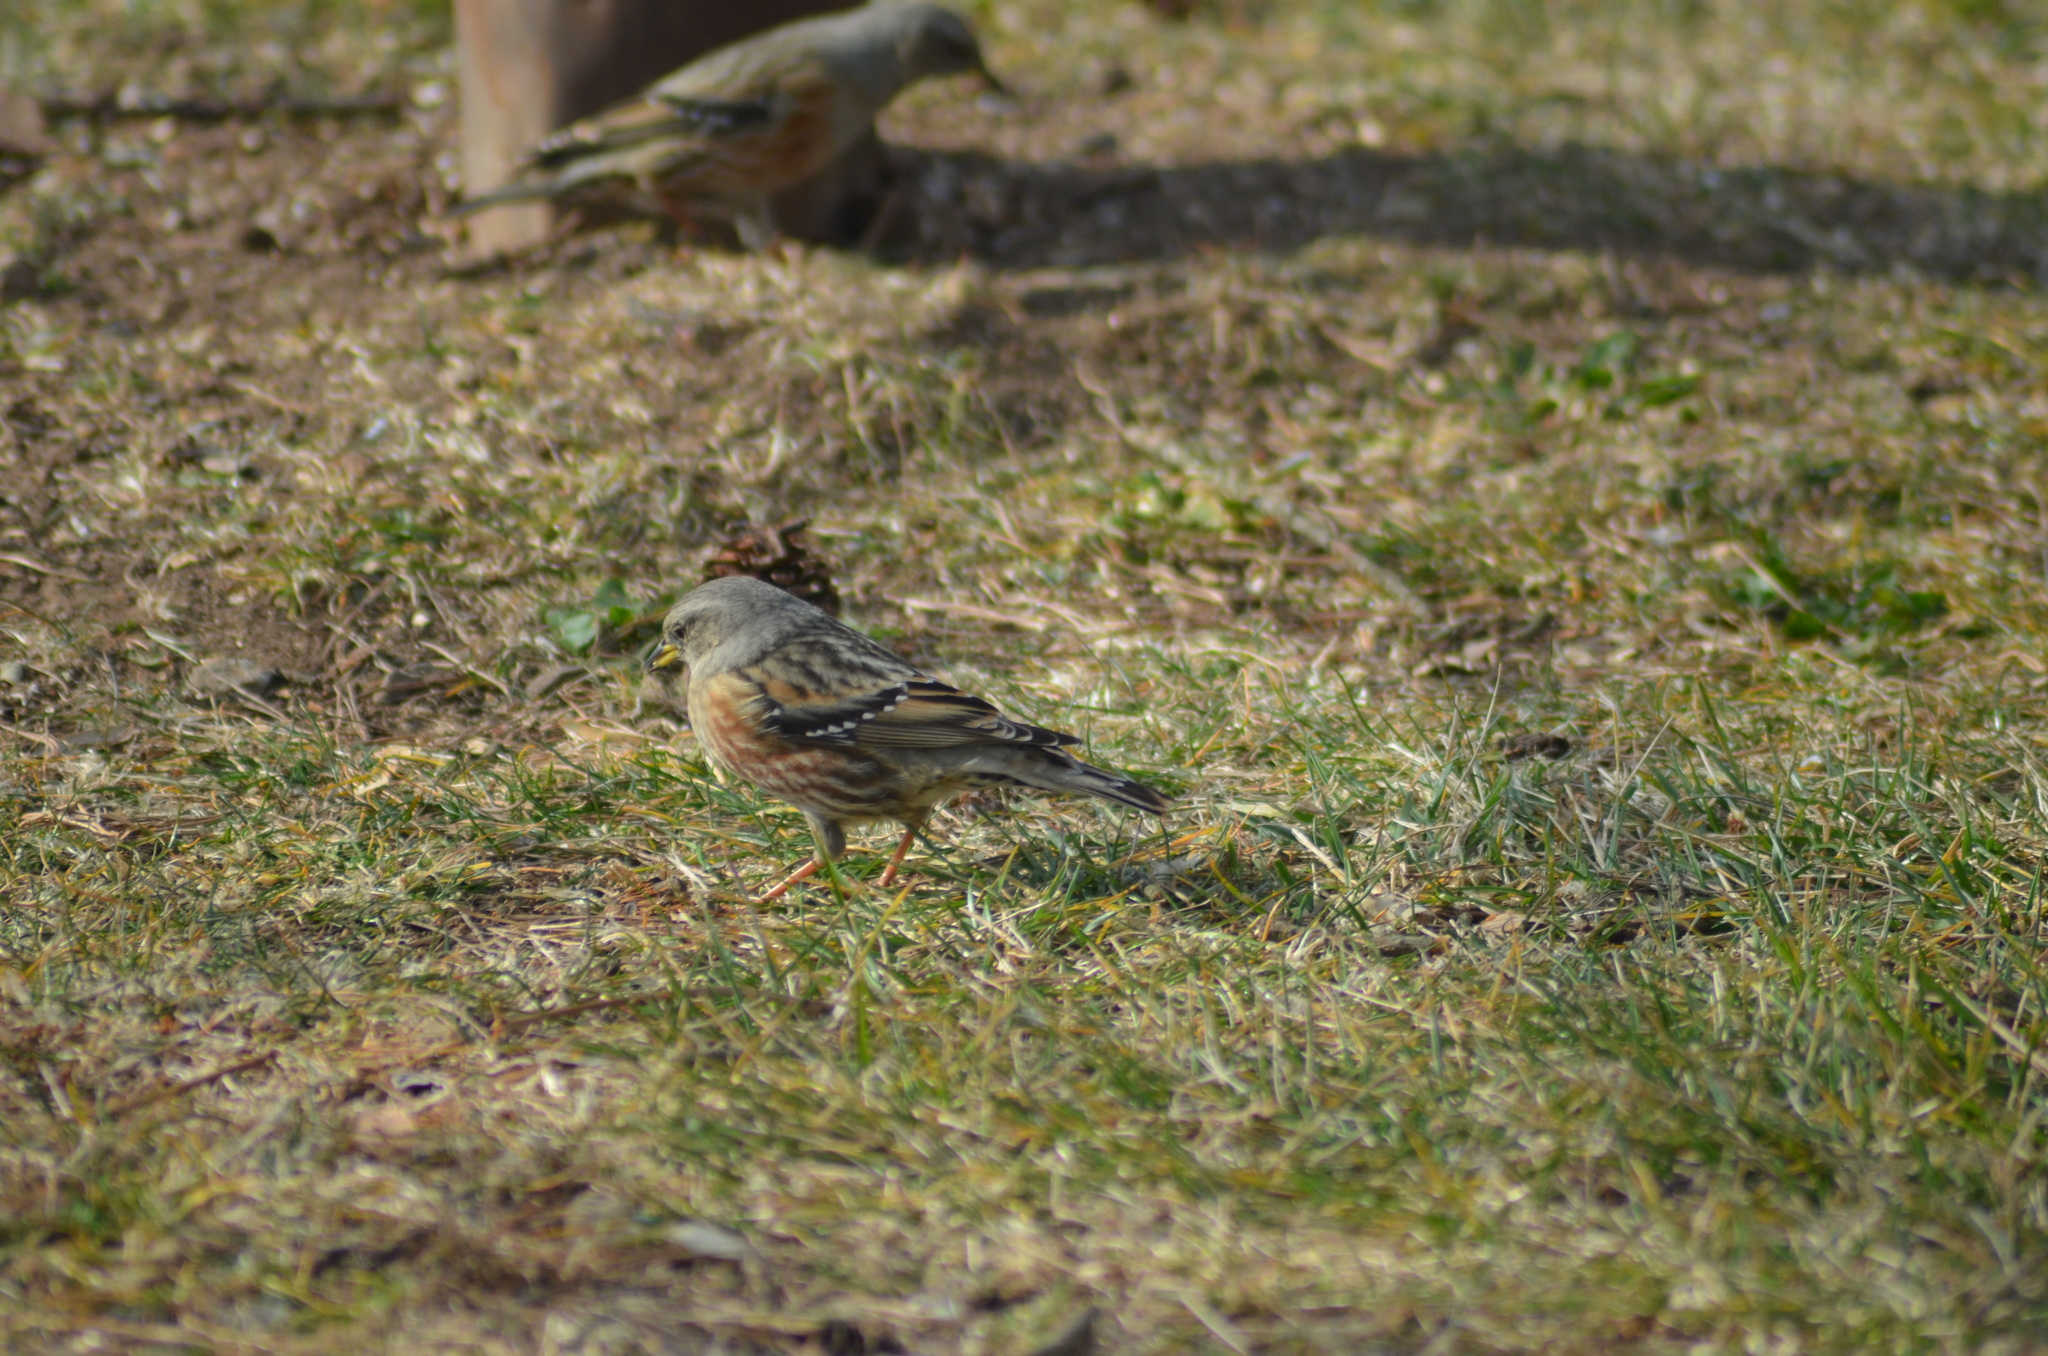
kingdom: Animalia
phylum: Chordata
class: Aves
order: Passeriformes
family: Prunellidae
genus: Prunella
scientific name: Prunella collaris
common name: Alpine accentor
